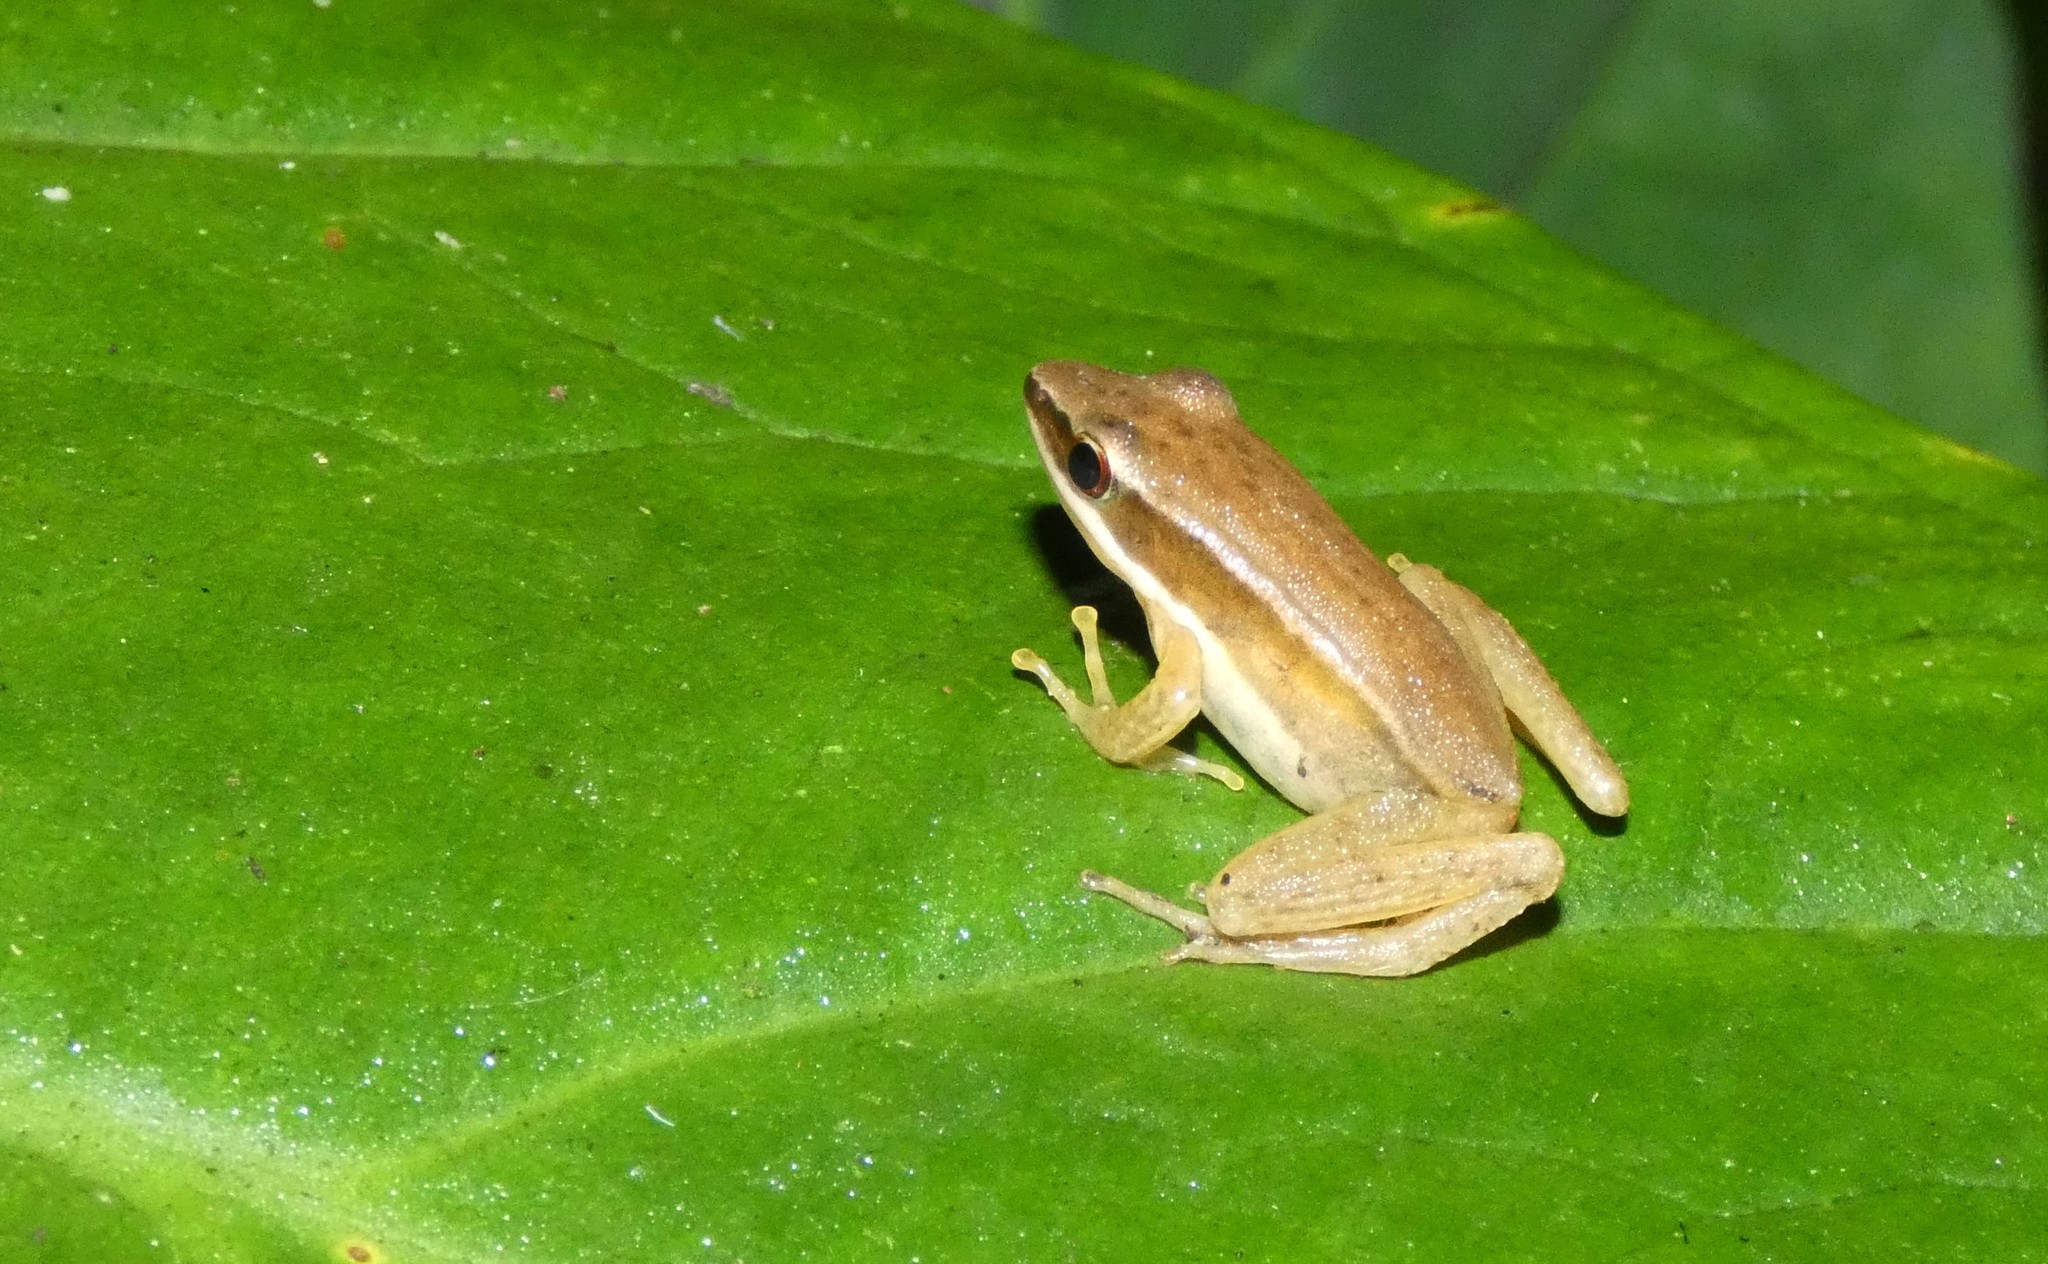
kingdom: Animalia
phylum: Chordata
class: Amphibia
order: Anura
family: Ranidae
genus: Indosylvirana
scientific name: Indosylvirana aurantiaca
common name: Boulenger's golden-backed frog
